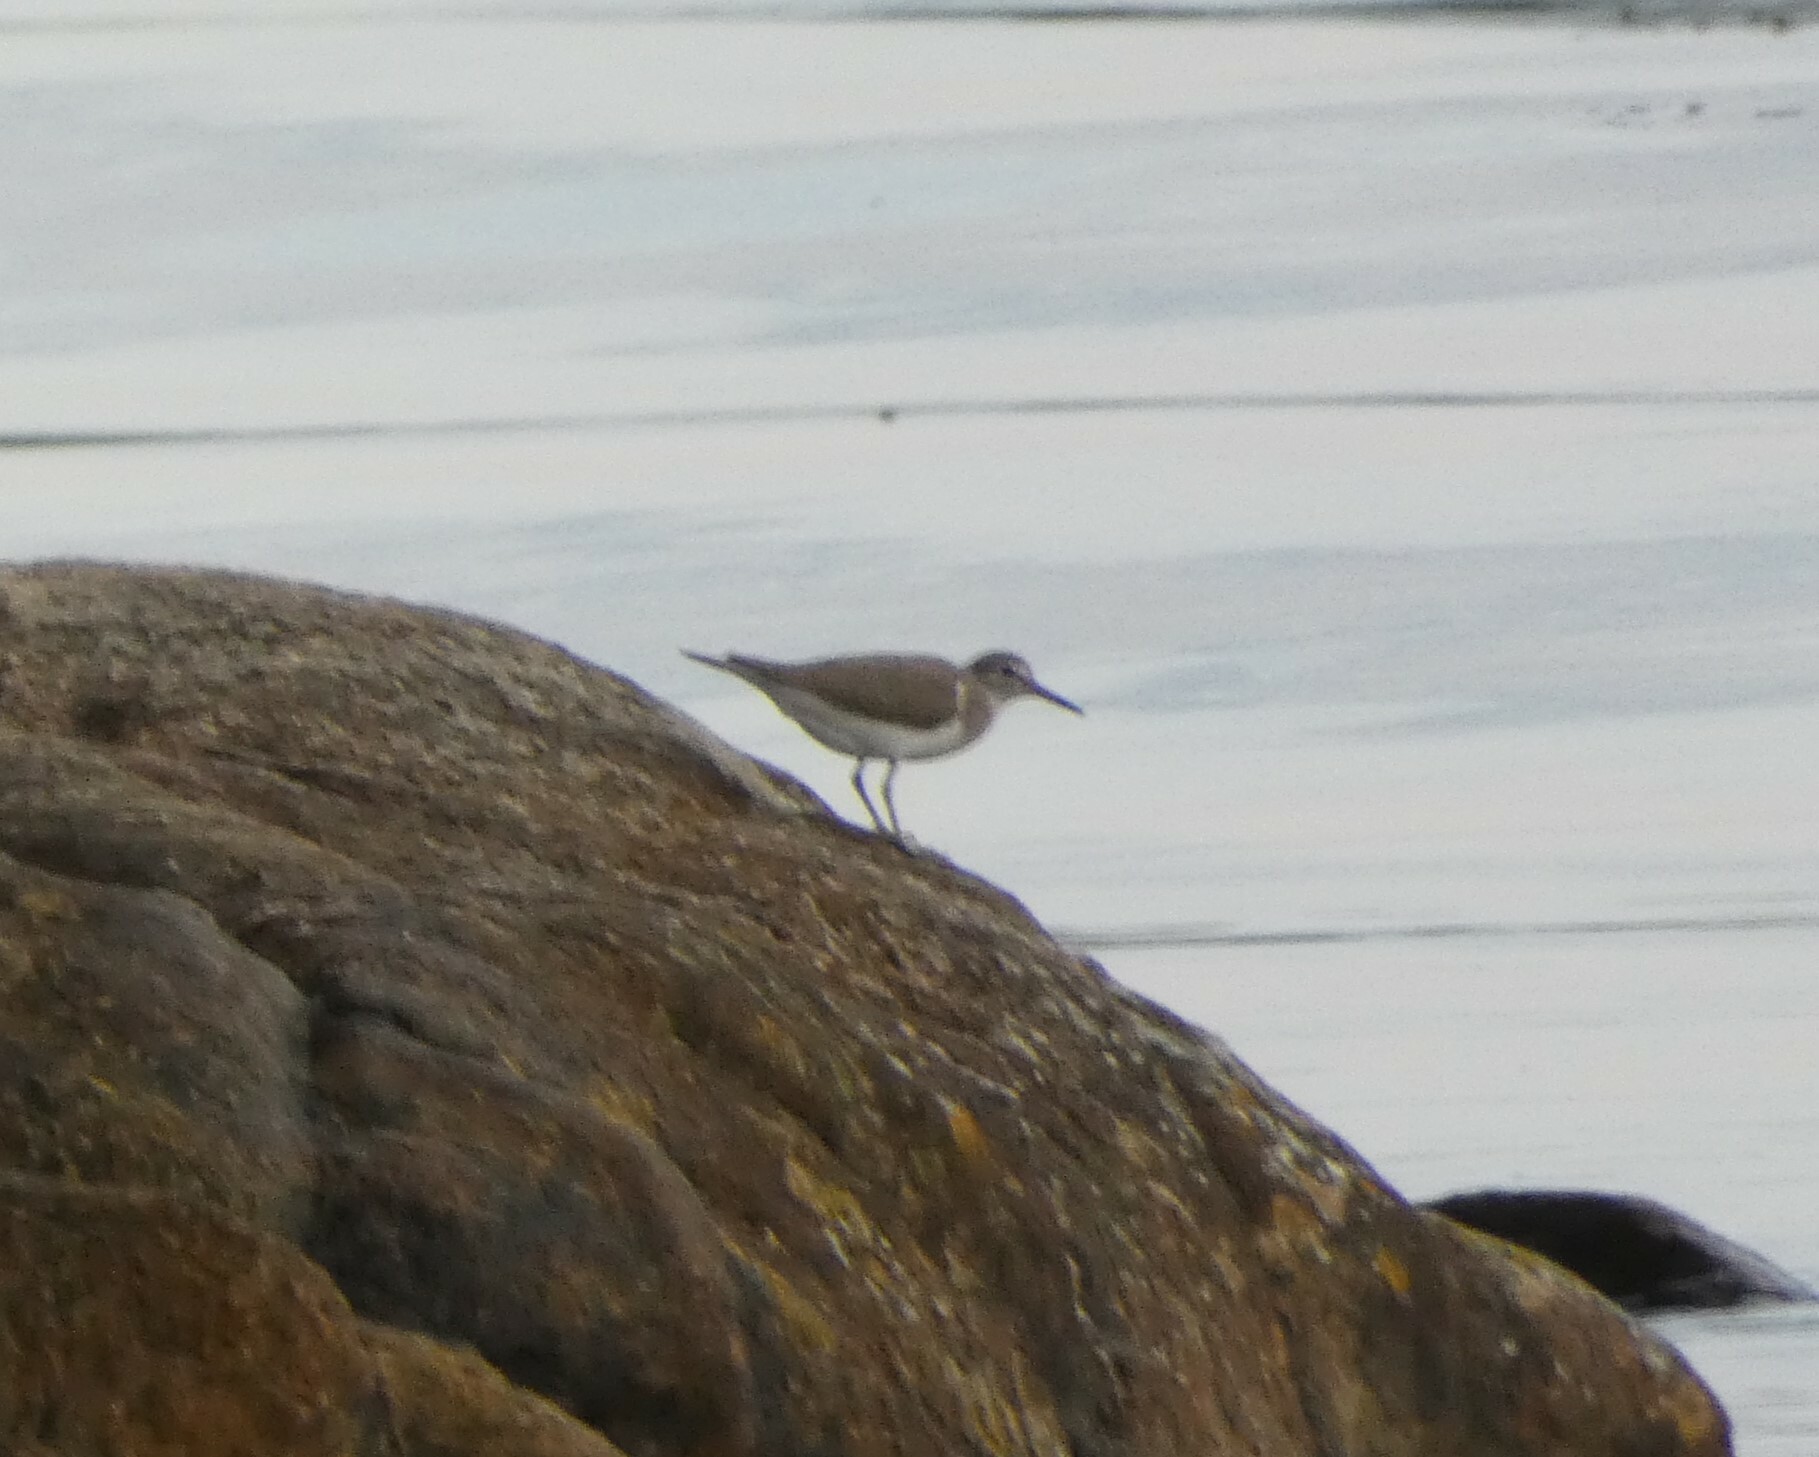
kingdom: Animalia
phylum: Chordata
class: Aves
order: Charadriiformes
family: Scolopacidae
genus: Actitis
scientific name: Actitis hypoleucos
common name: Common sandpiper
